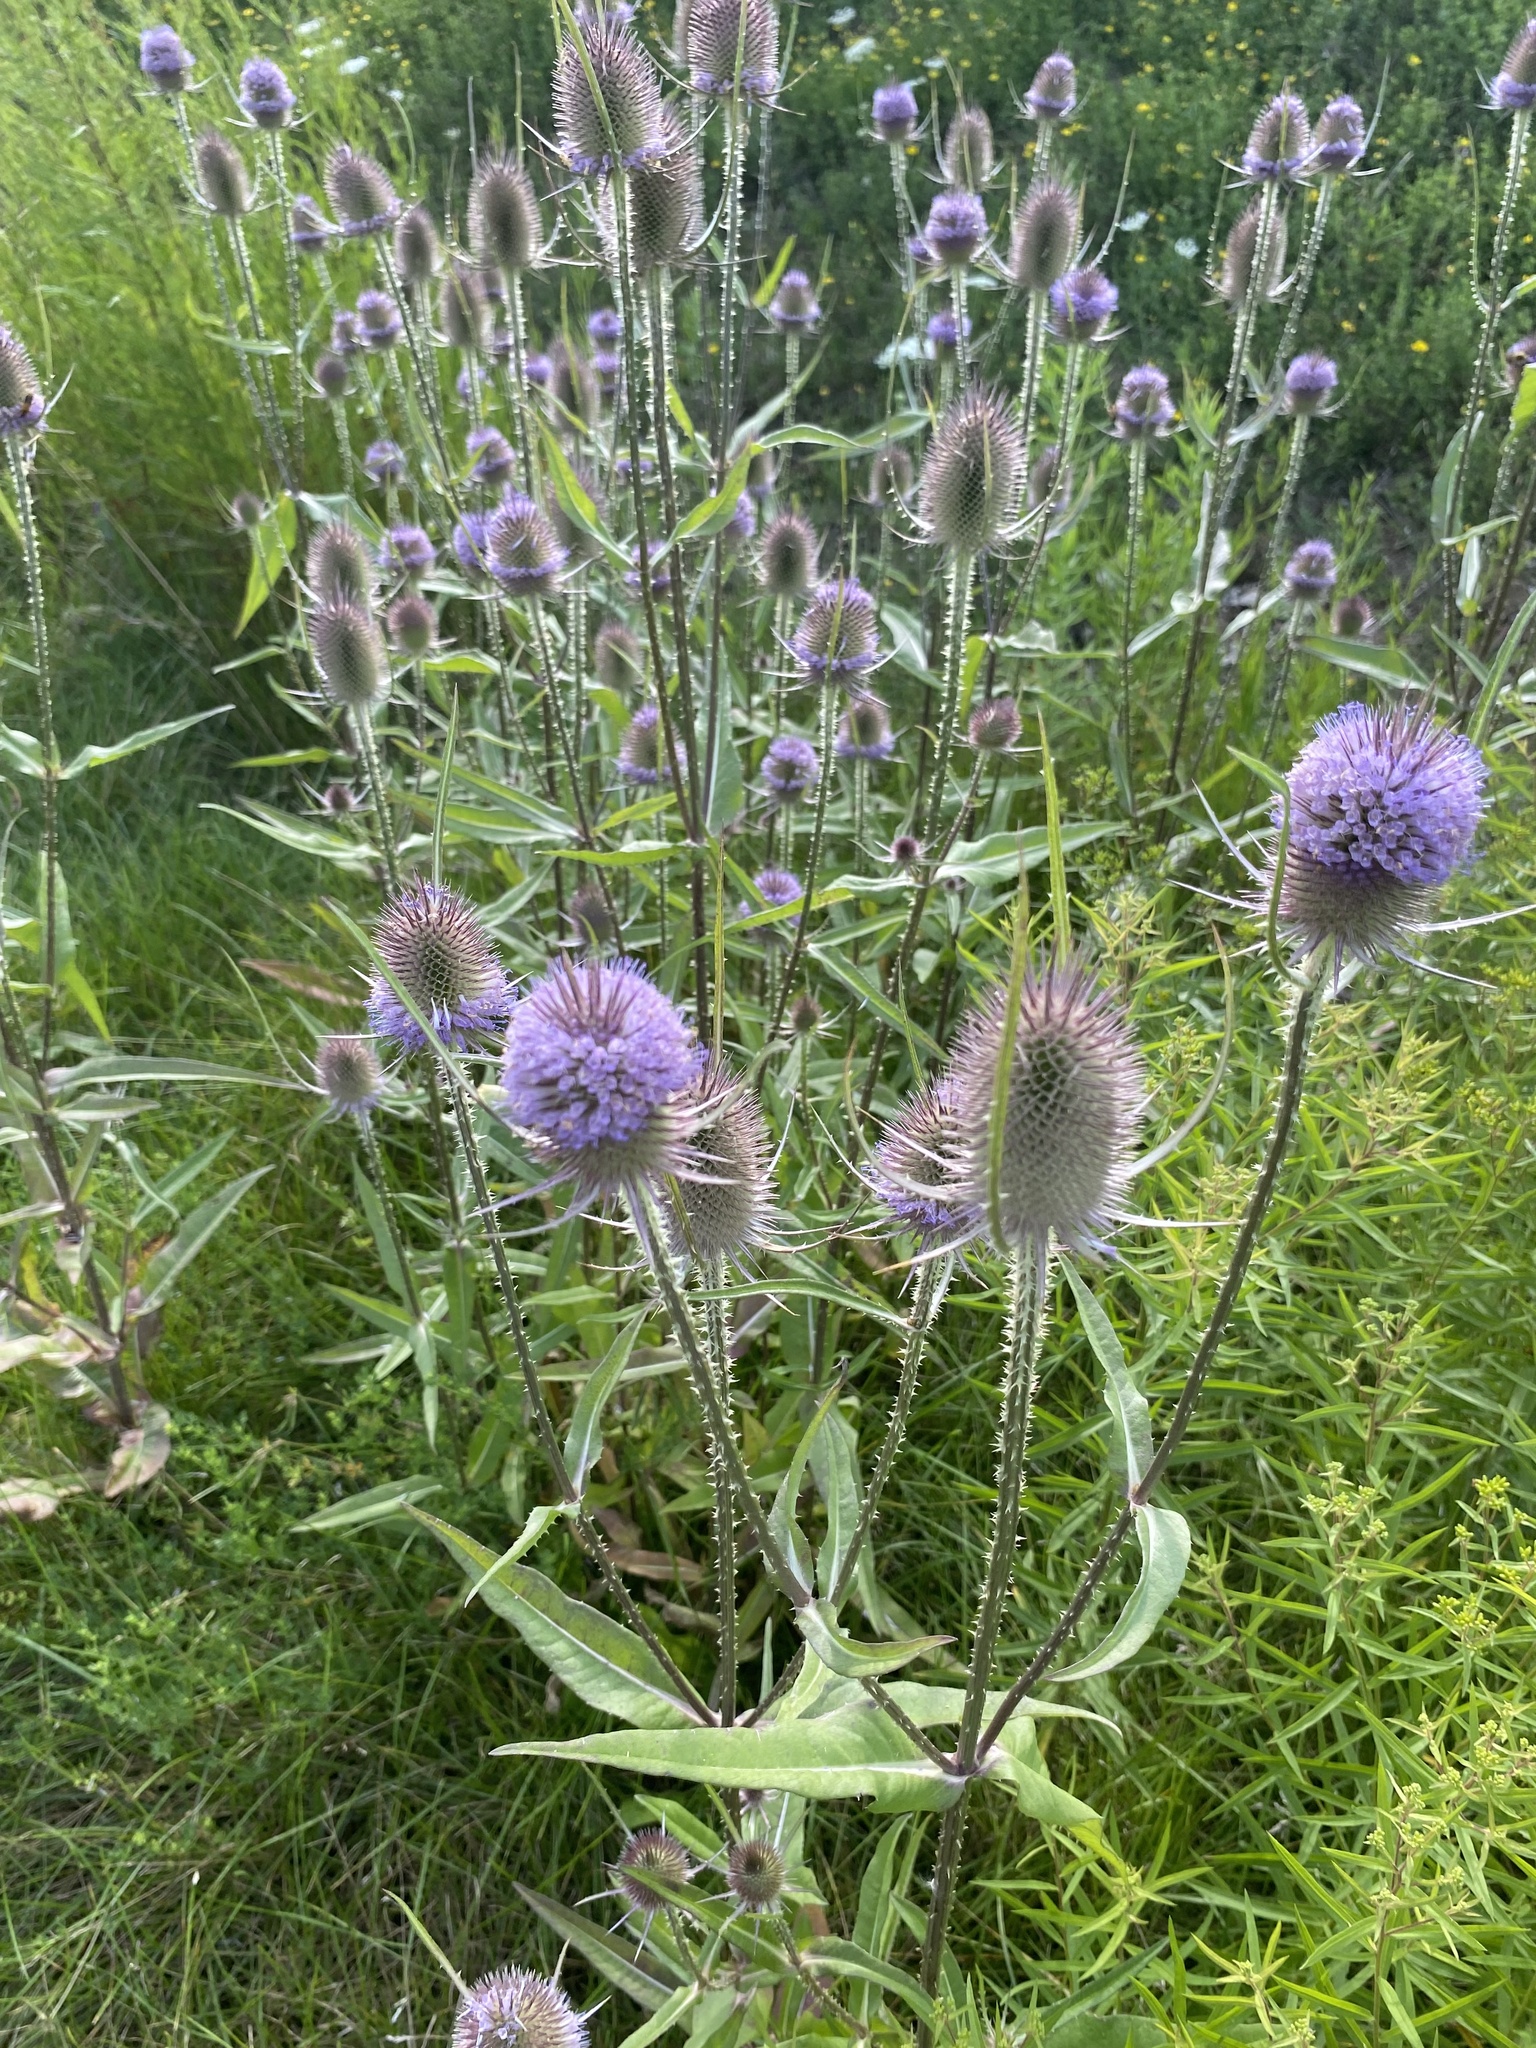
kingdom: Plantae
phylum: Tracheophyta
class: Magnoliopsida
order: Dipsacales
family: Caprifoliaceae
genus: Dipsacus
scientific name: Dipsacus fullonum
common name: Teasel
